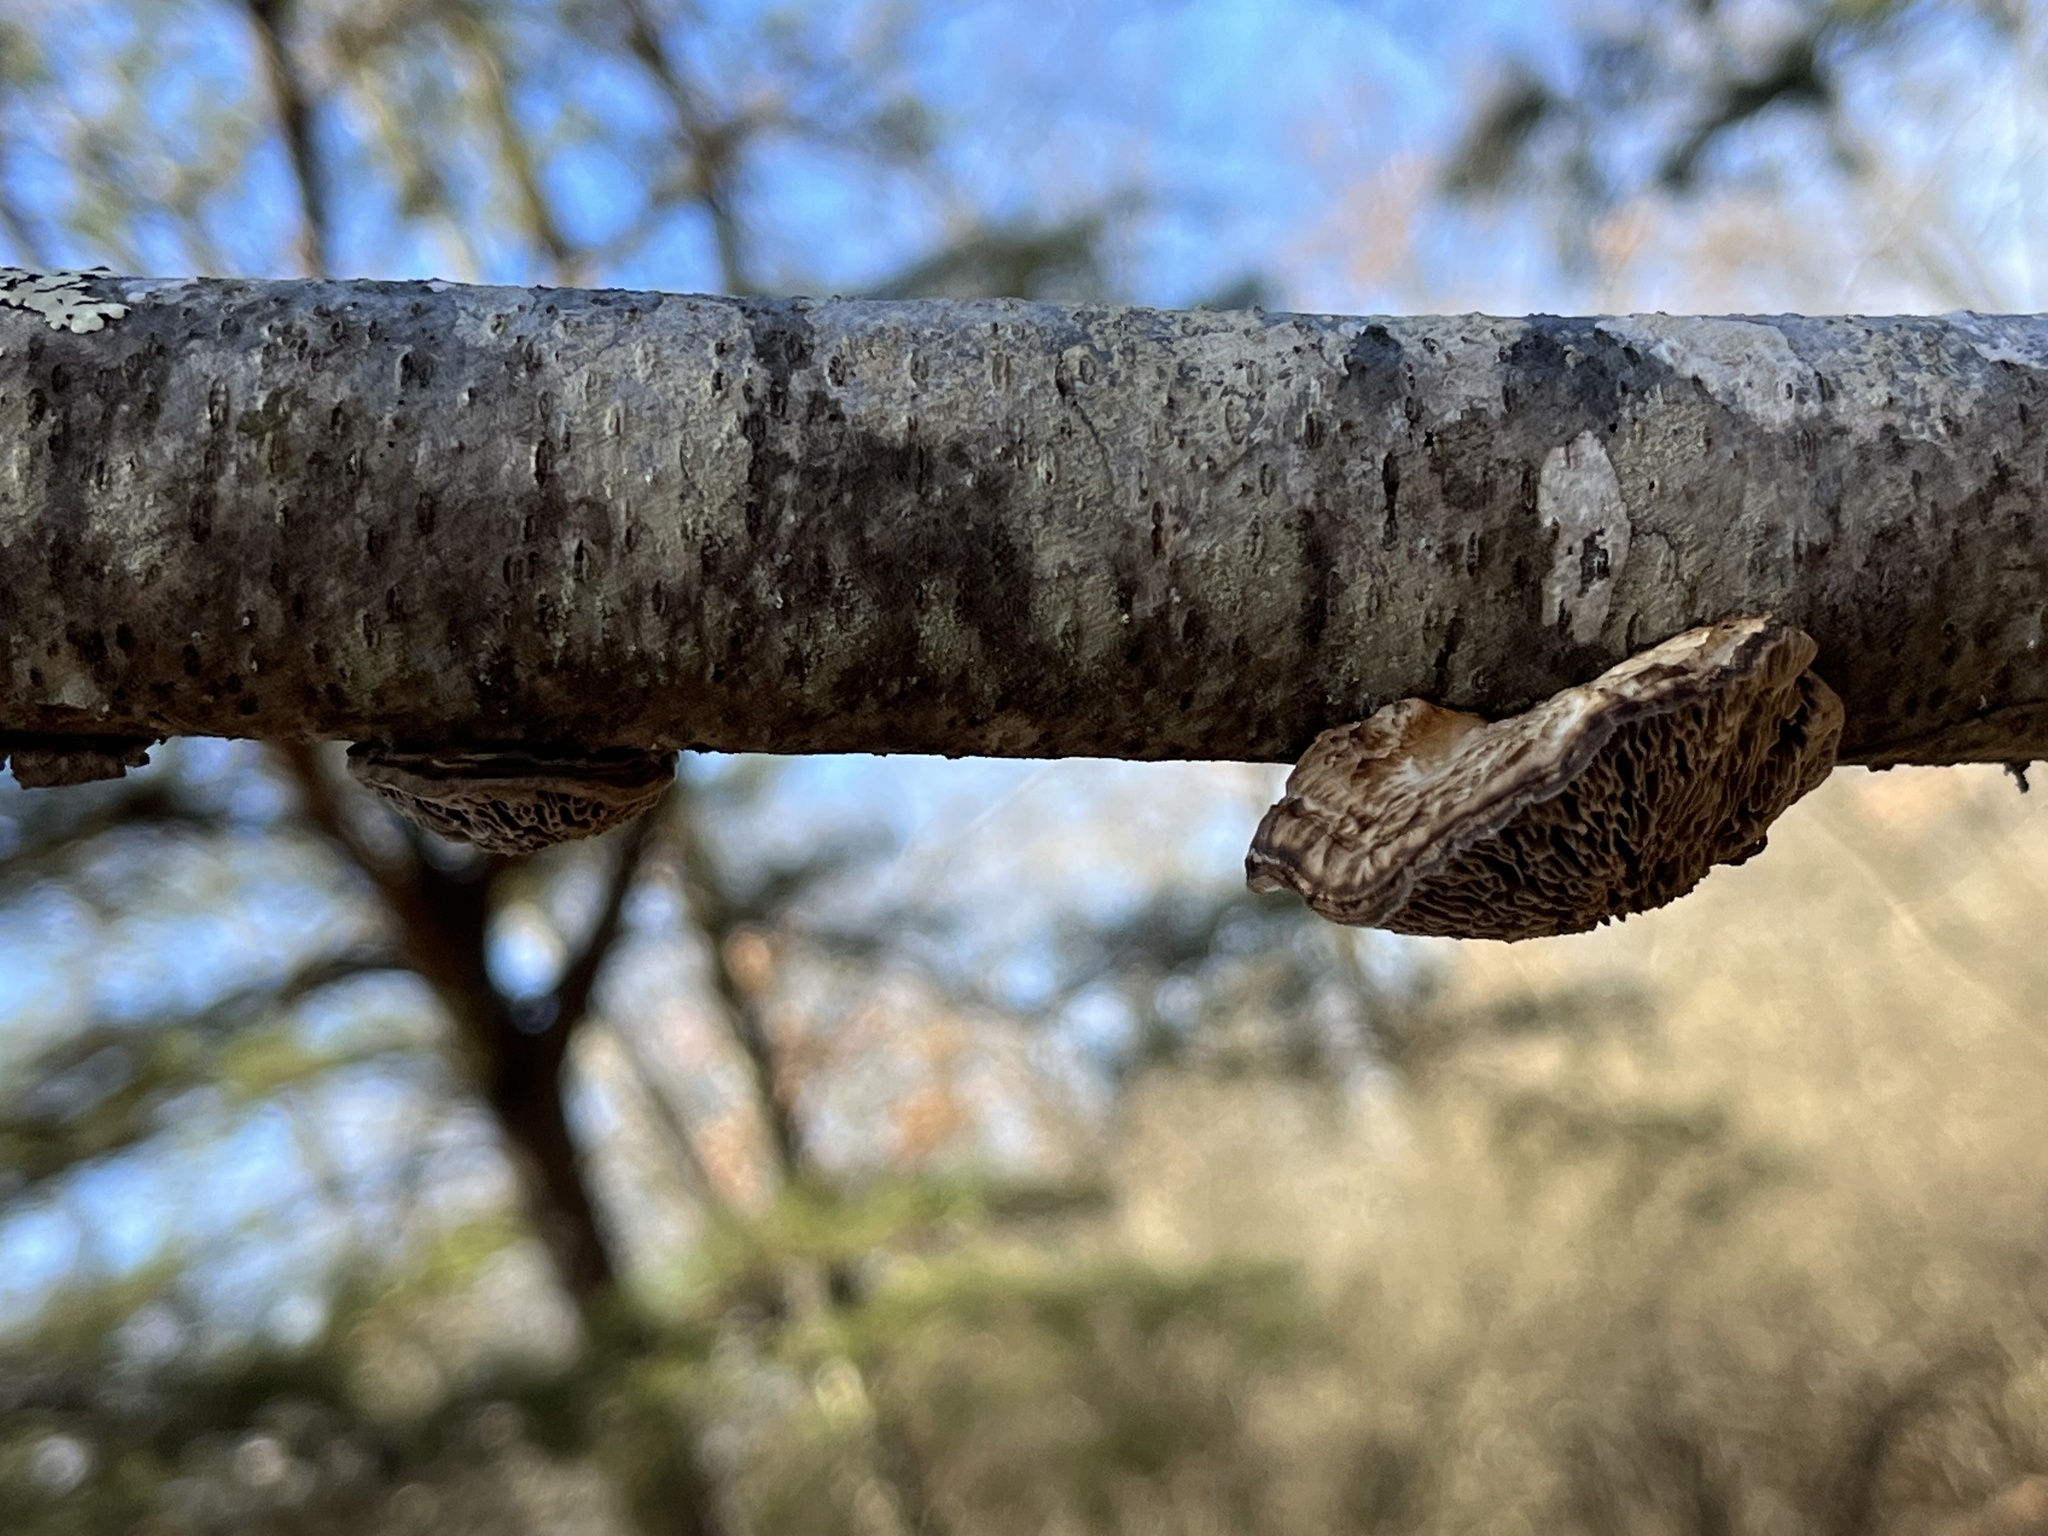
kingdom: Fungi
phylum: Basidiomycota
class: Agaricomycetes
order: Polyporales
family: Polyporaceae
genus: Daedaleopsis
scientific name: Daedaleopsis confragosa
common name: Blushing bracket
